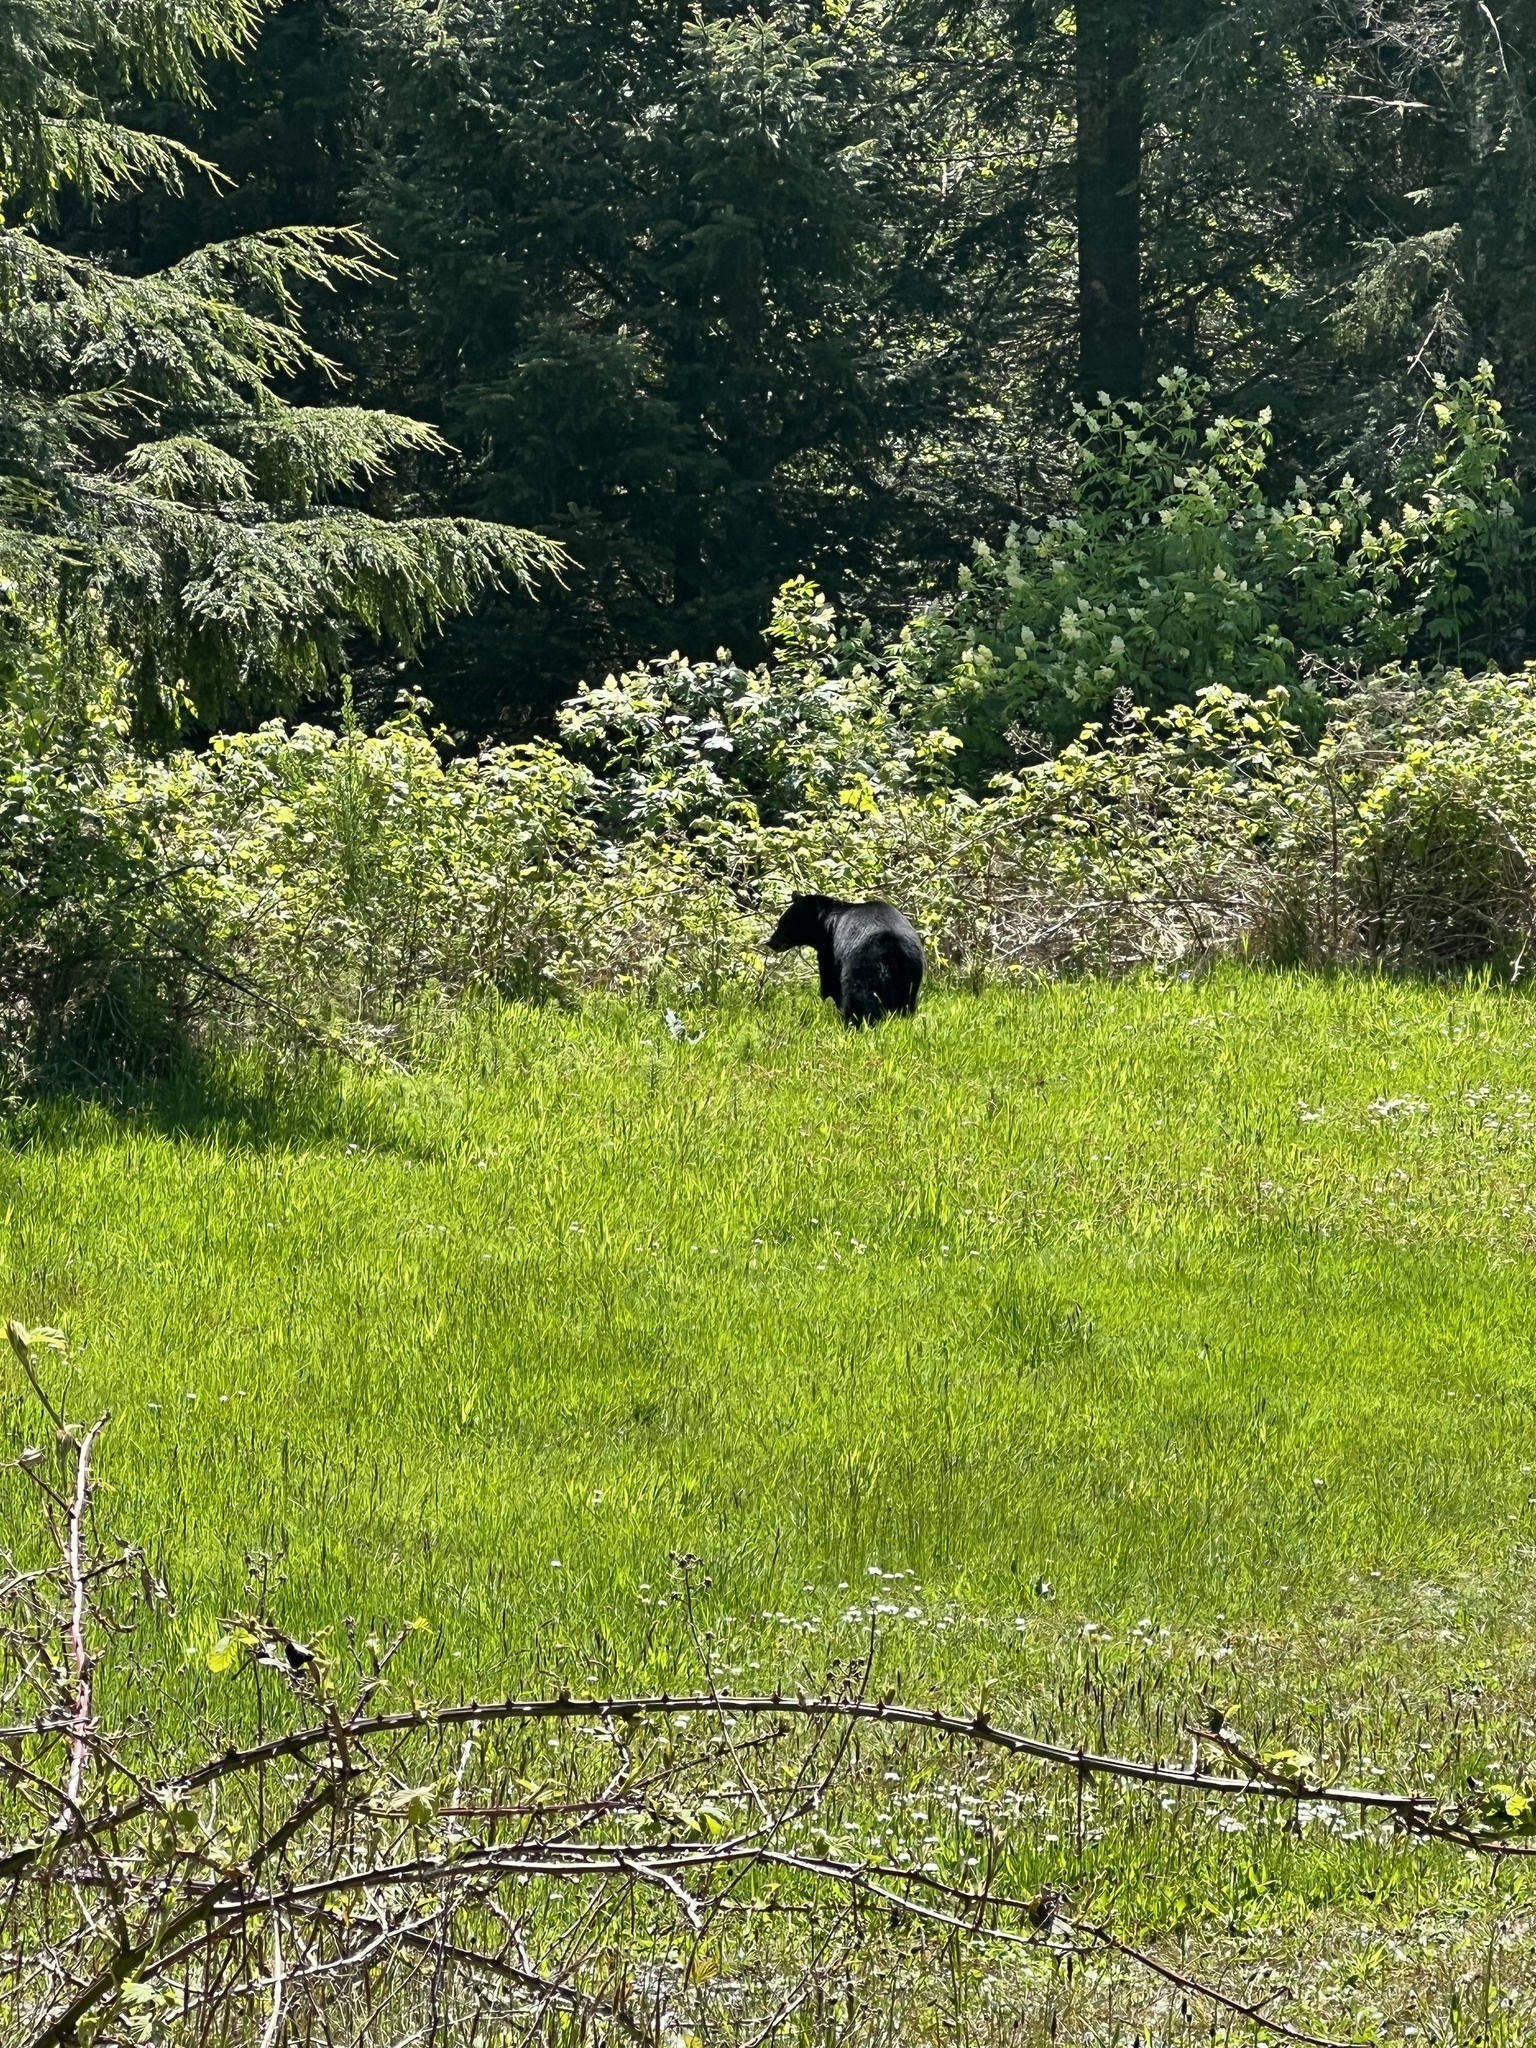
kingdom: Animalia
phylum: Chordata
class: Mammalia
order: Carnivora
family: Ursidae
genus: Ursus
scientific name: Ursus americanus
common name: American black bear
